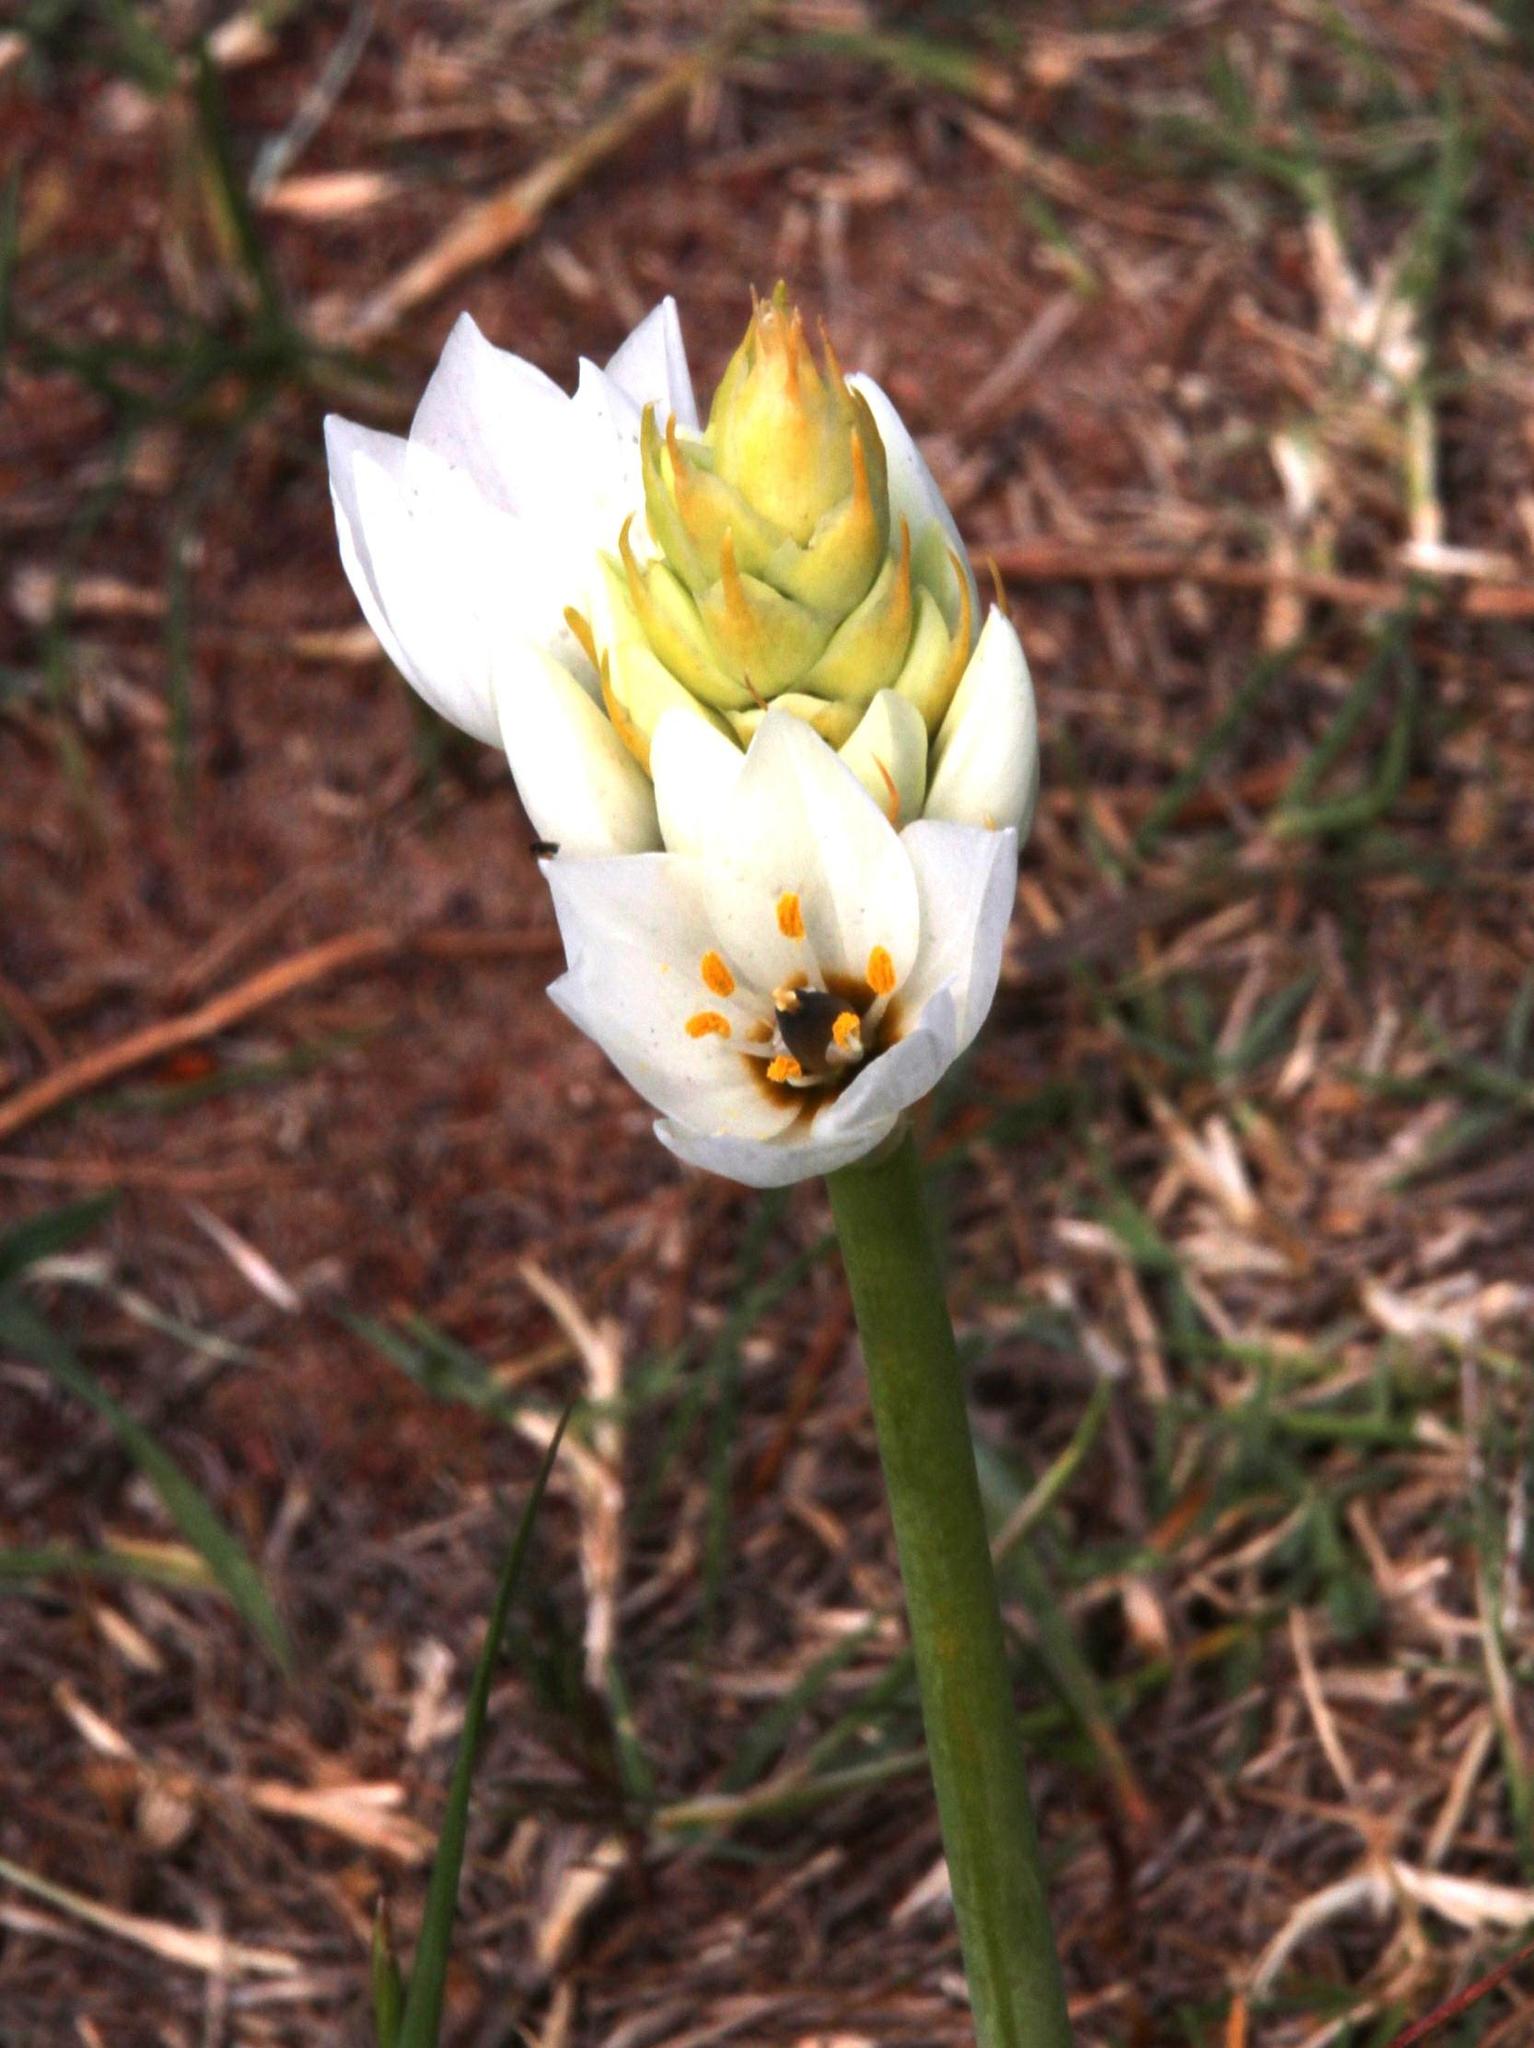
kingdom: Plantae
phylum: Tracheophyta
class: Liliopsida
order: Asparagales
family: Asparagaceae
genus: Ornithogalum
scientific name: Ornithogalum thyrsoides
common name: Chincherinchee
